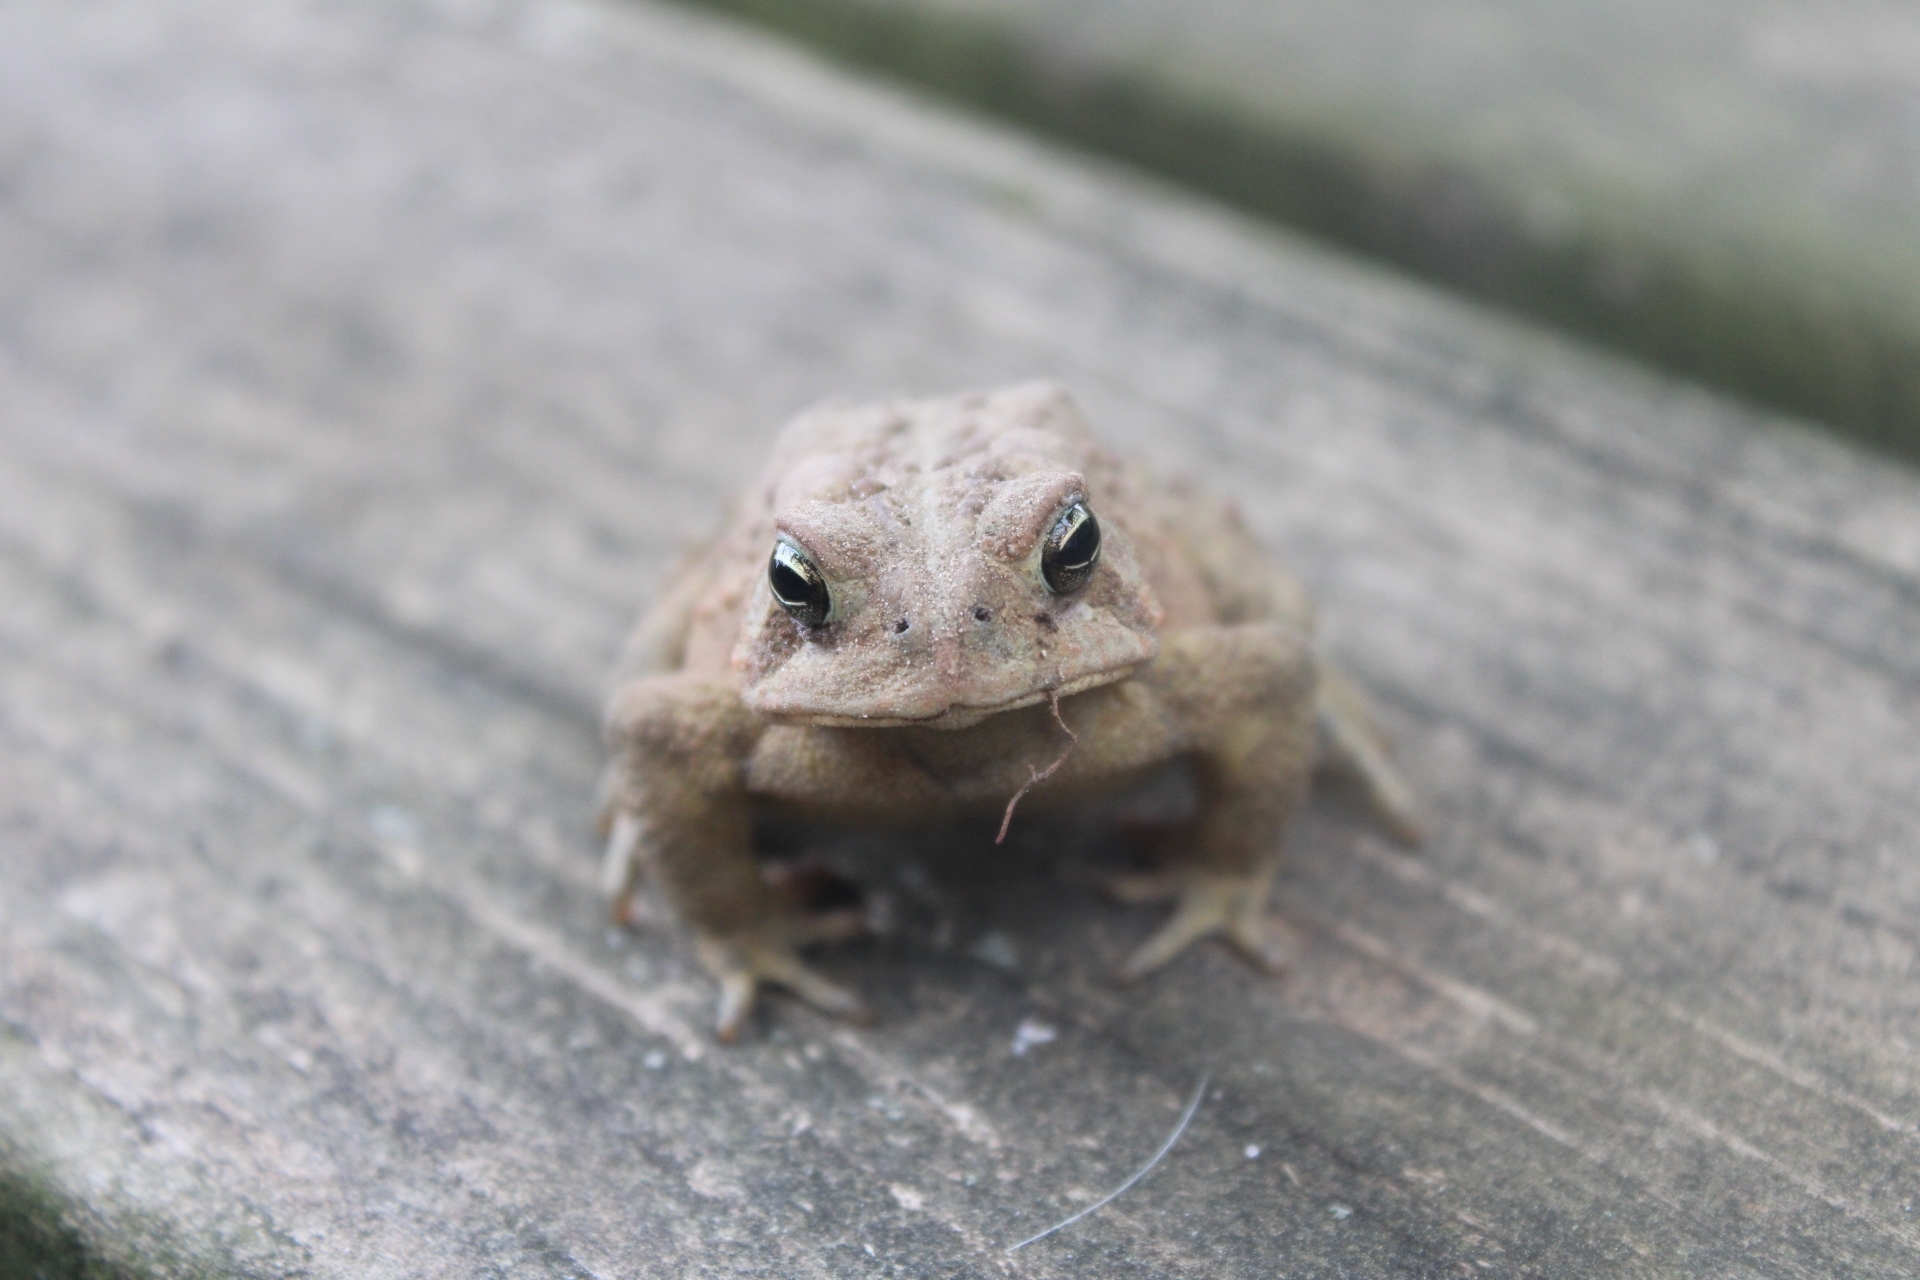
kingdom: Animalia
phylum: Chordata
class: Amphibia
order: Anura
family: Bufonidae
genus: Anaxyrus
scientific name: Anaxyrus americanus
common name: American toad
